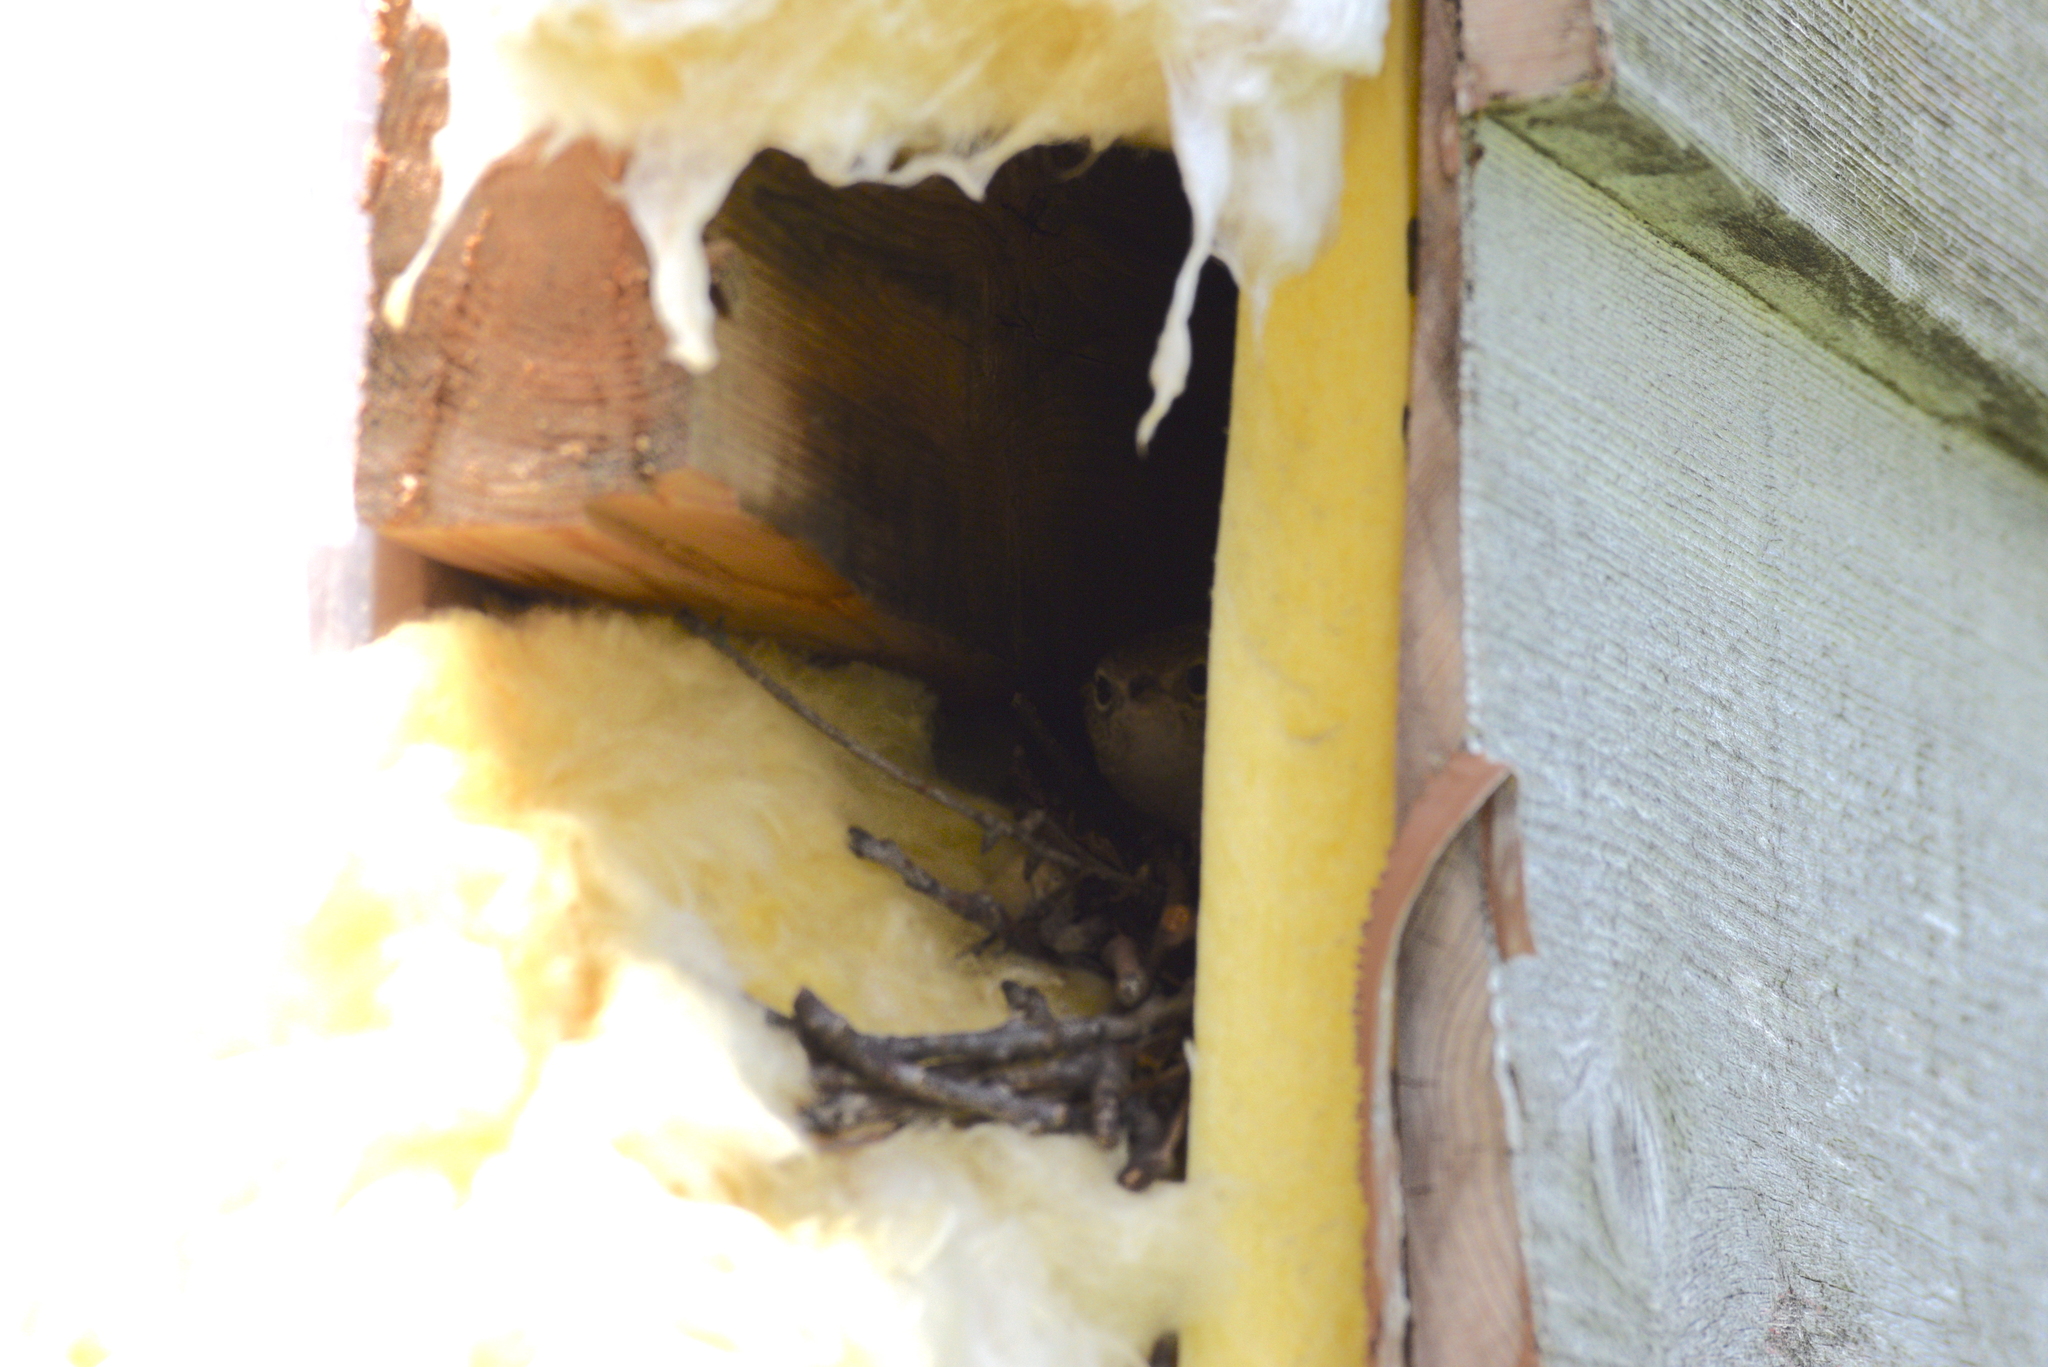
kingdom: Animalia
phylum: Chordata
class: Aves
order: Passeriformes
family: Troglodytidae
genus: Troglodytes
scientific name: Troglodytes aedon
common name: House wren
